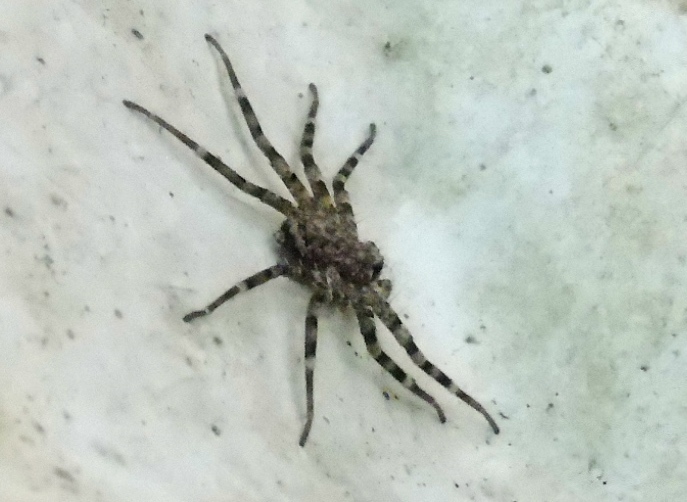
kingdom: Animalia
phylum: Arthropoda
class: Arachnida
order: Araneae
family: Selenopidae
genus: Selenops
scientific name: Selenops
